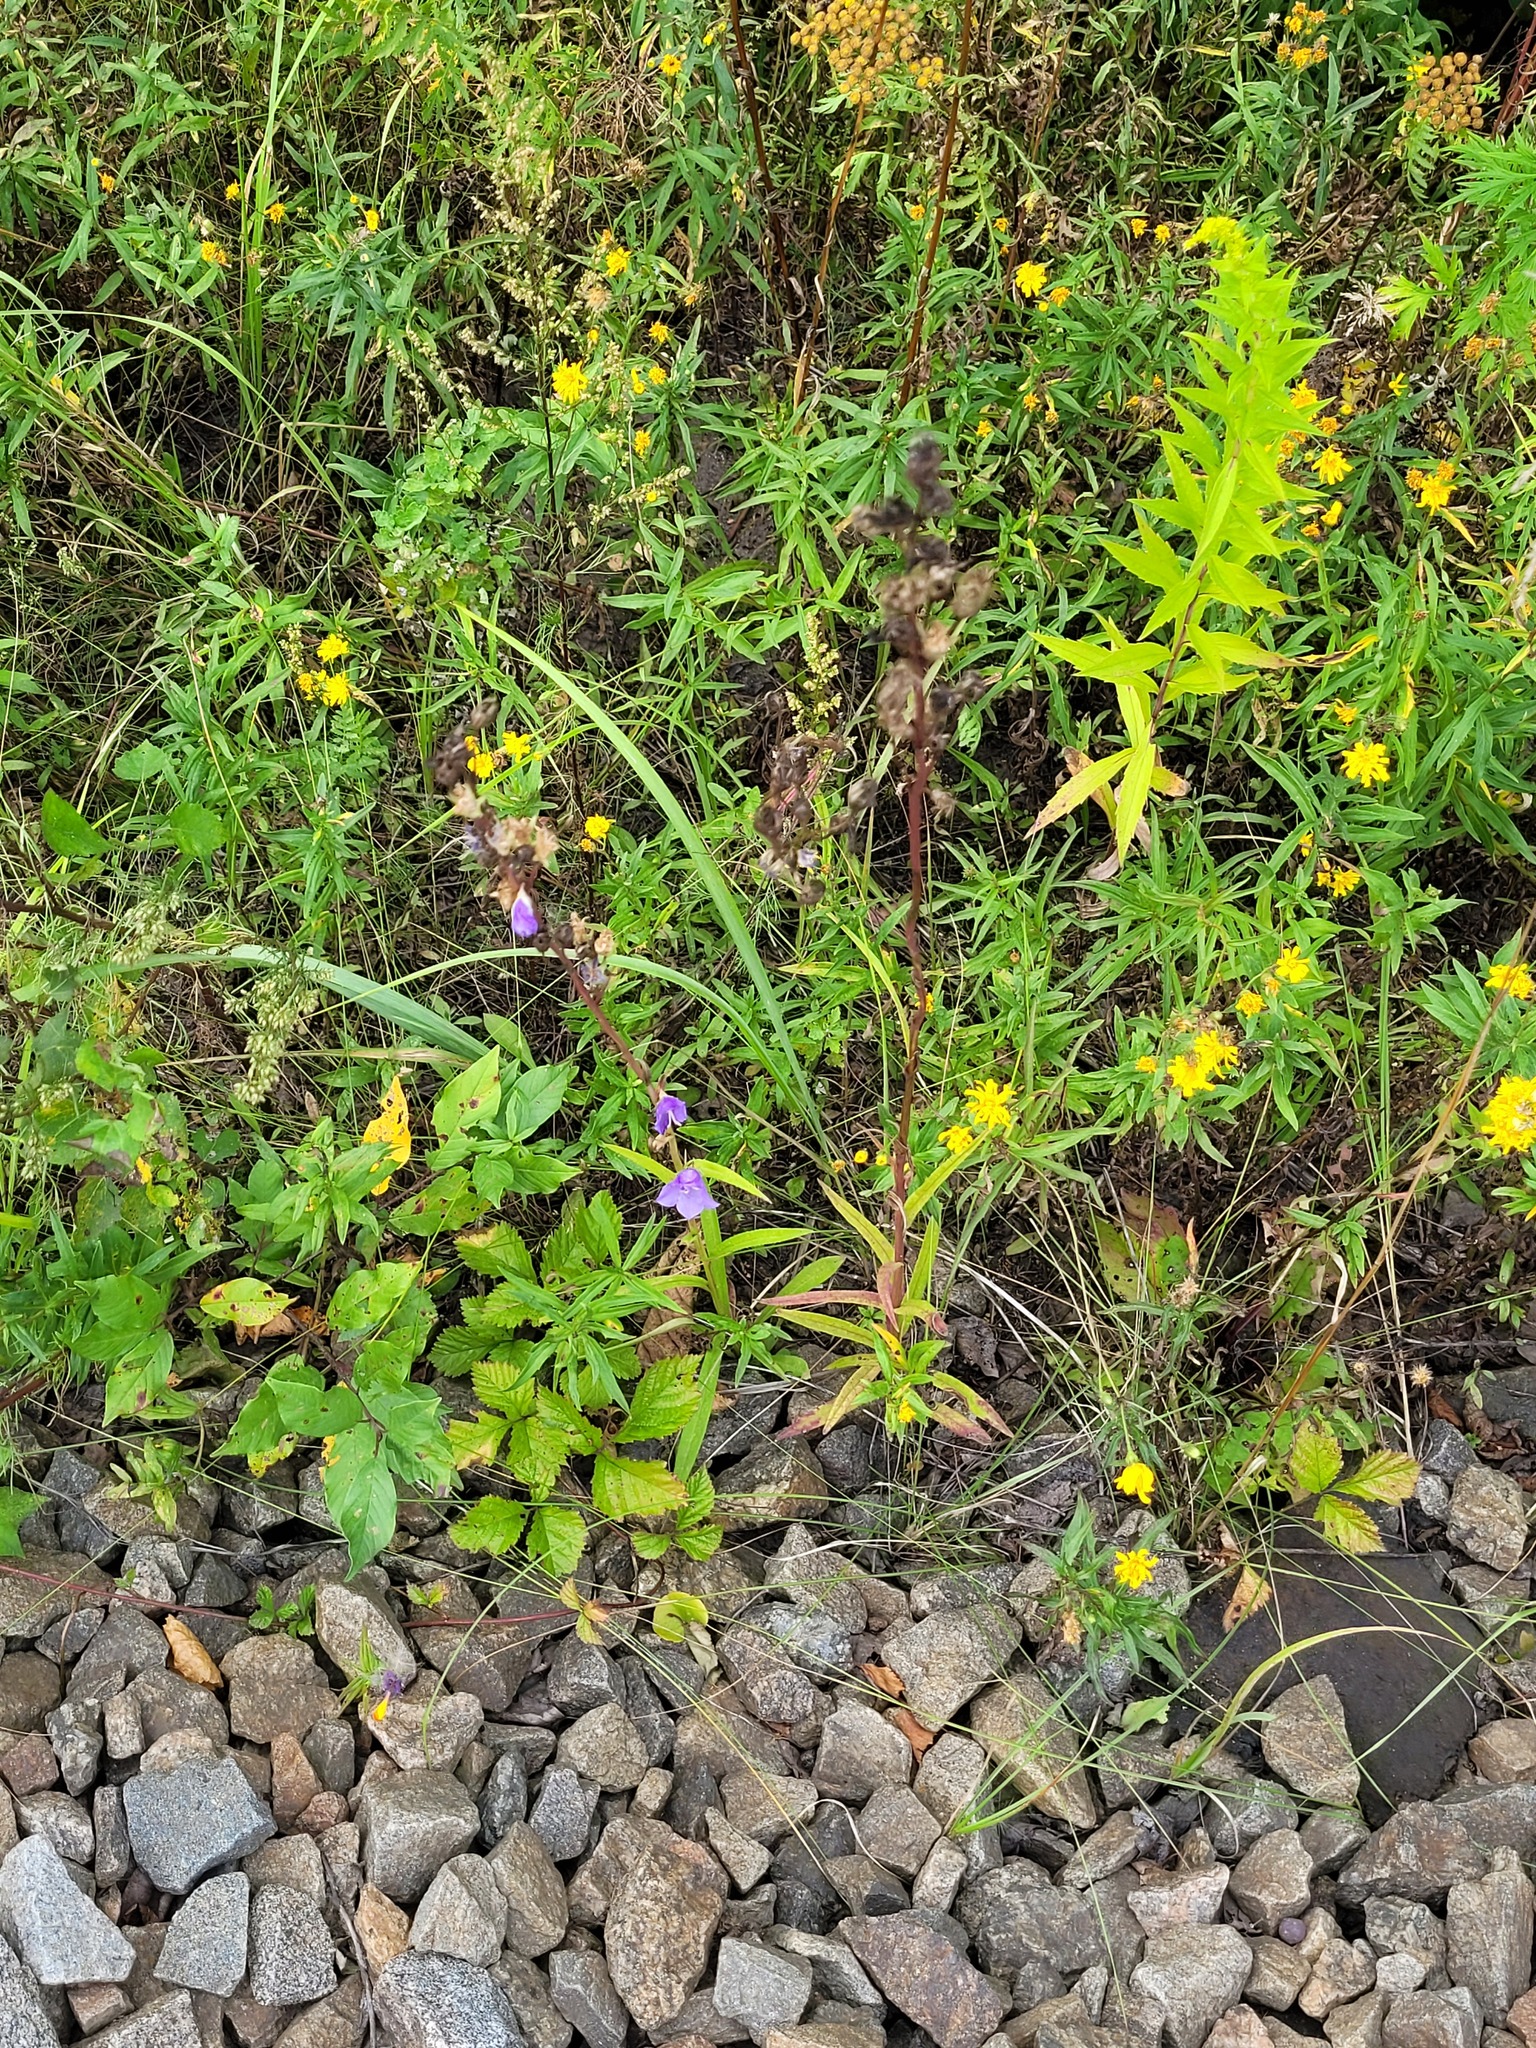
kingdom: Plantae
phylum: Tracheophyta
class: Magnoliopsida
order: Asterales
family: Campanulaceae
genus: Campanula
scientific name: Campanula persicifolia
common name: Peach-leaved bellflower
